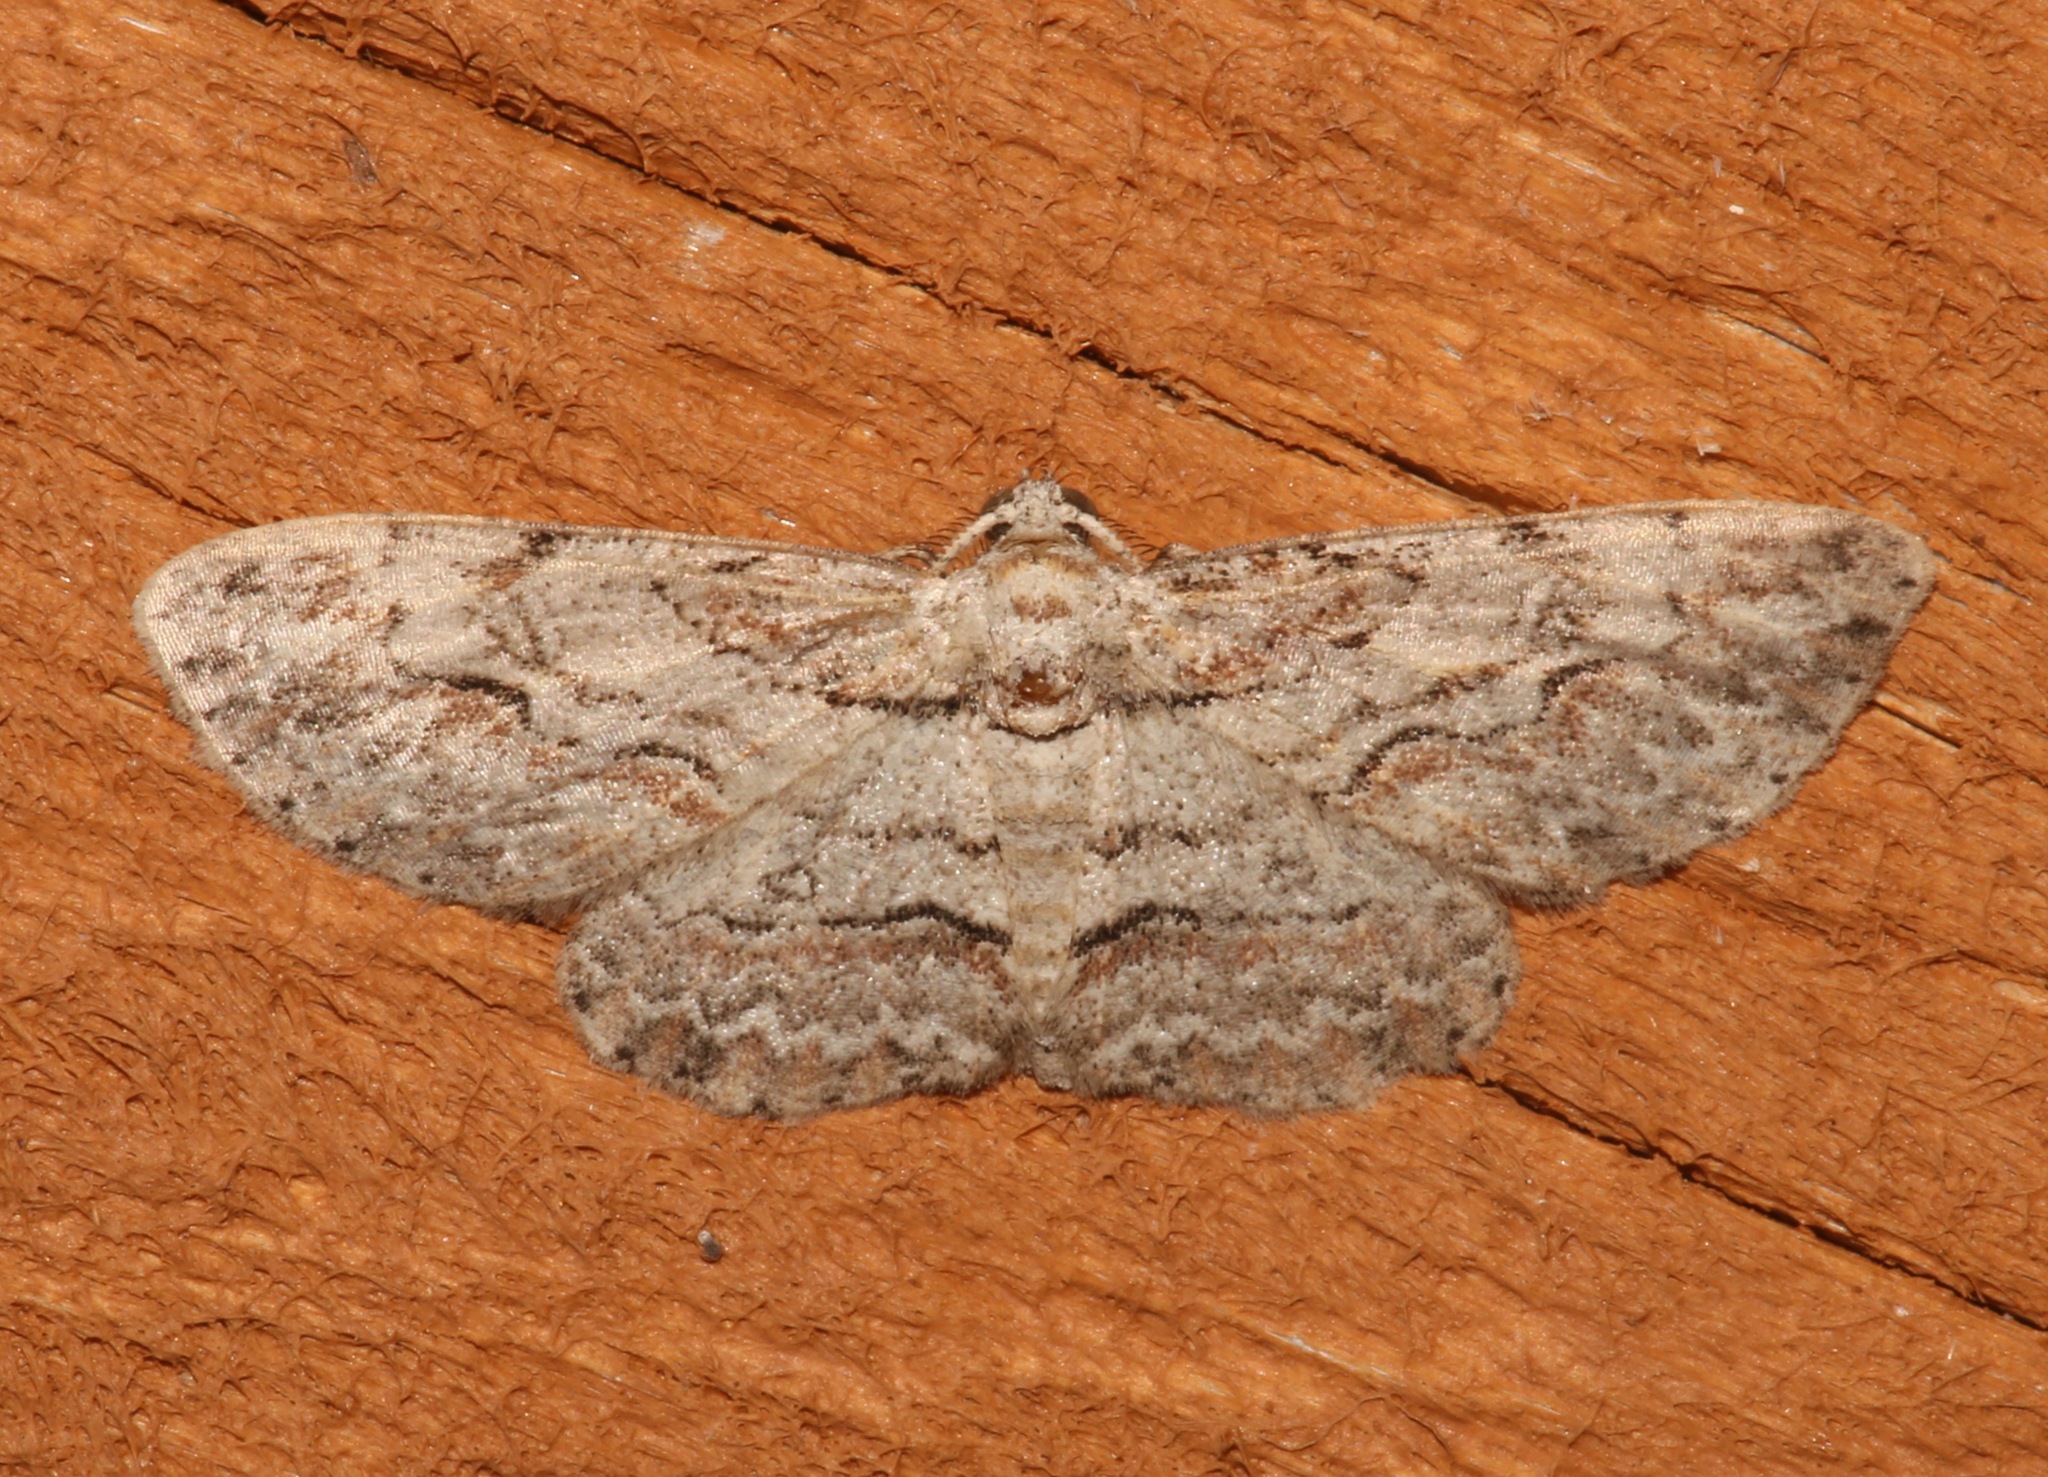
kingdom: Animalia
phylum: Arthropoda
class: Insecta
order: Lepidoptera
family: Geometridae
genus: Iridopsis
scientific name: Iridopsis defectaria
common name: Brown-shaded gray
